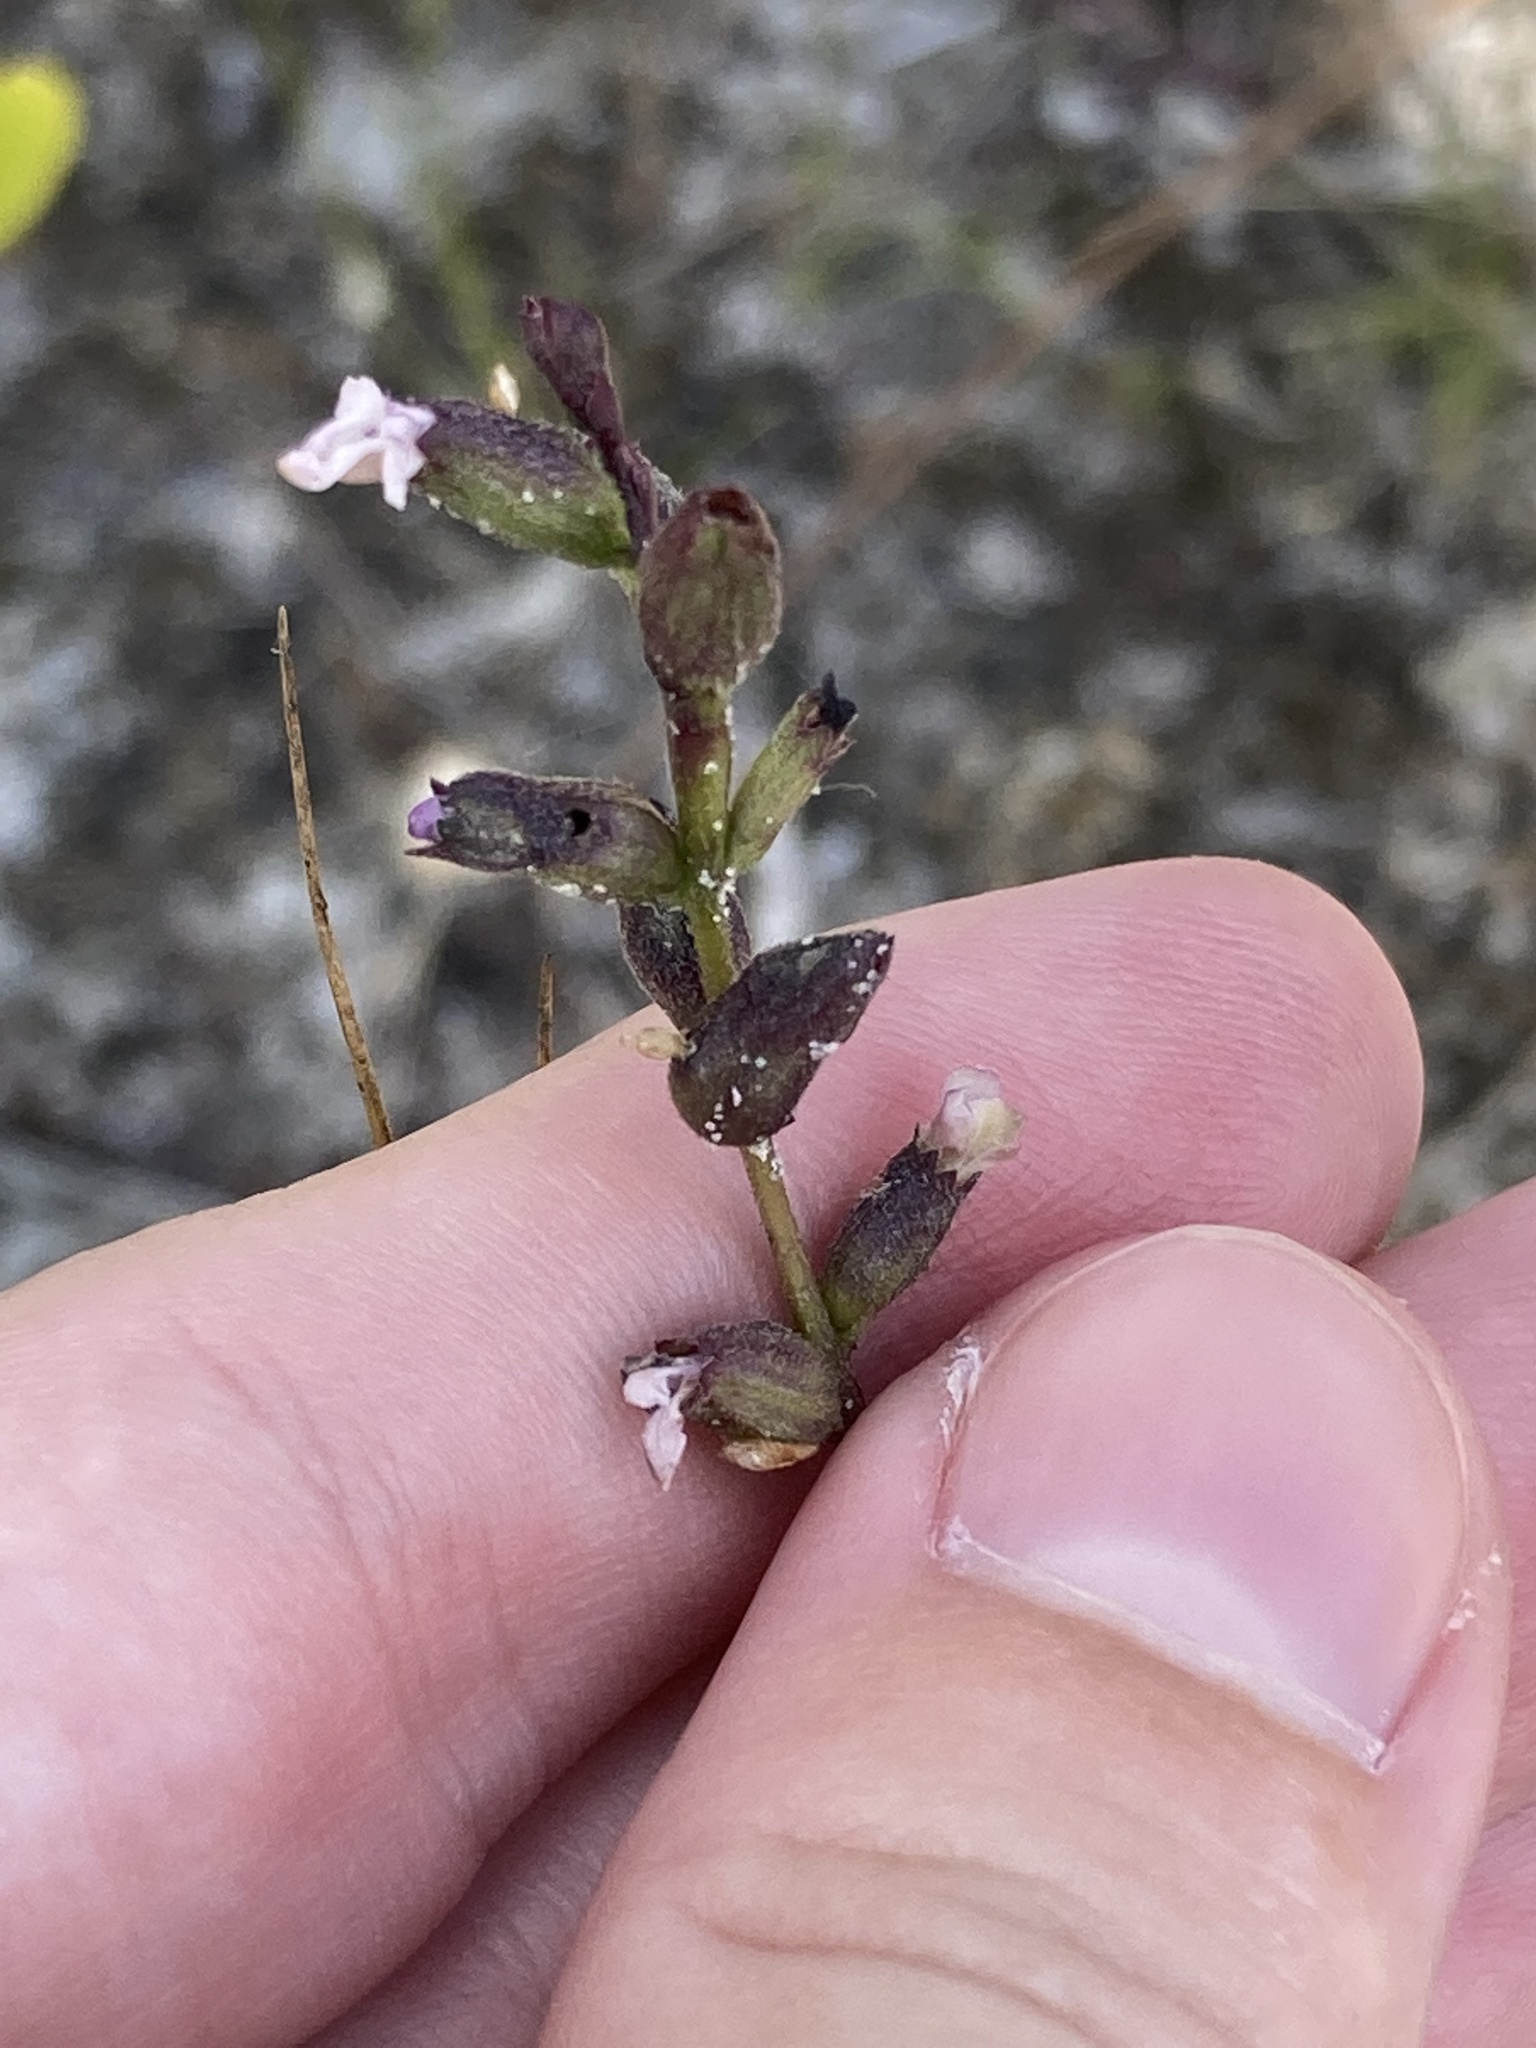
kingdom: Plantae
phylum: Tracheophyta
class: Magnoliopsida
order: Lamiales
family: Orobanchaceae
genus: Buchnera
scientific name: Buchnera floridana
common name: Florida bluehearts
